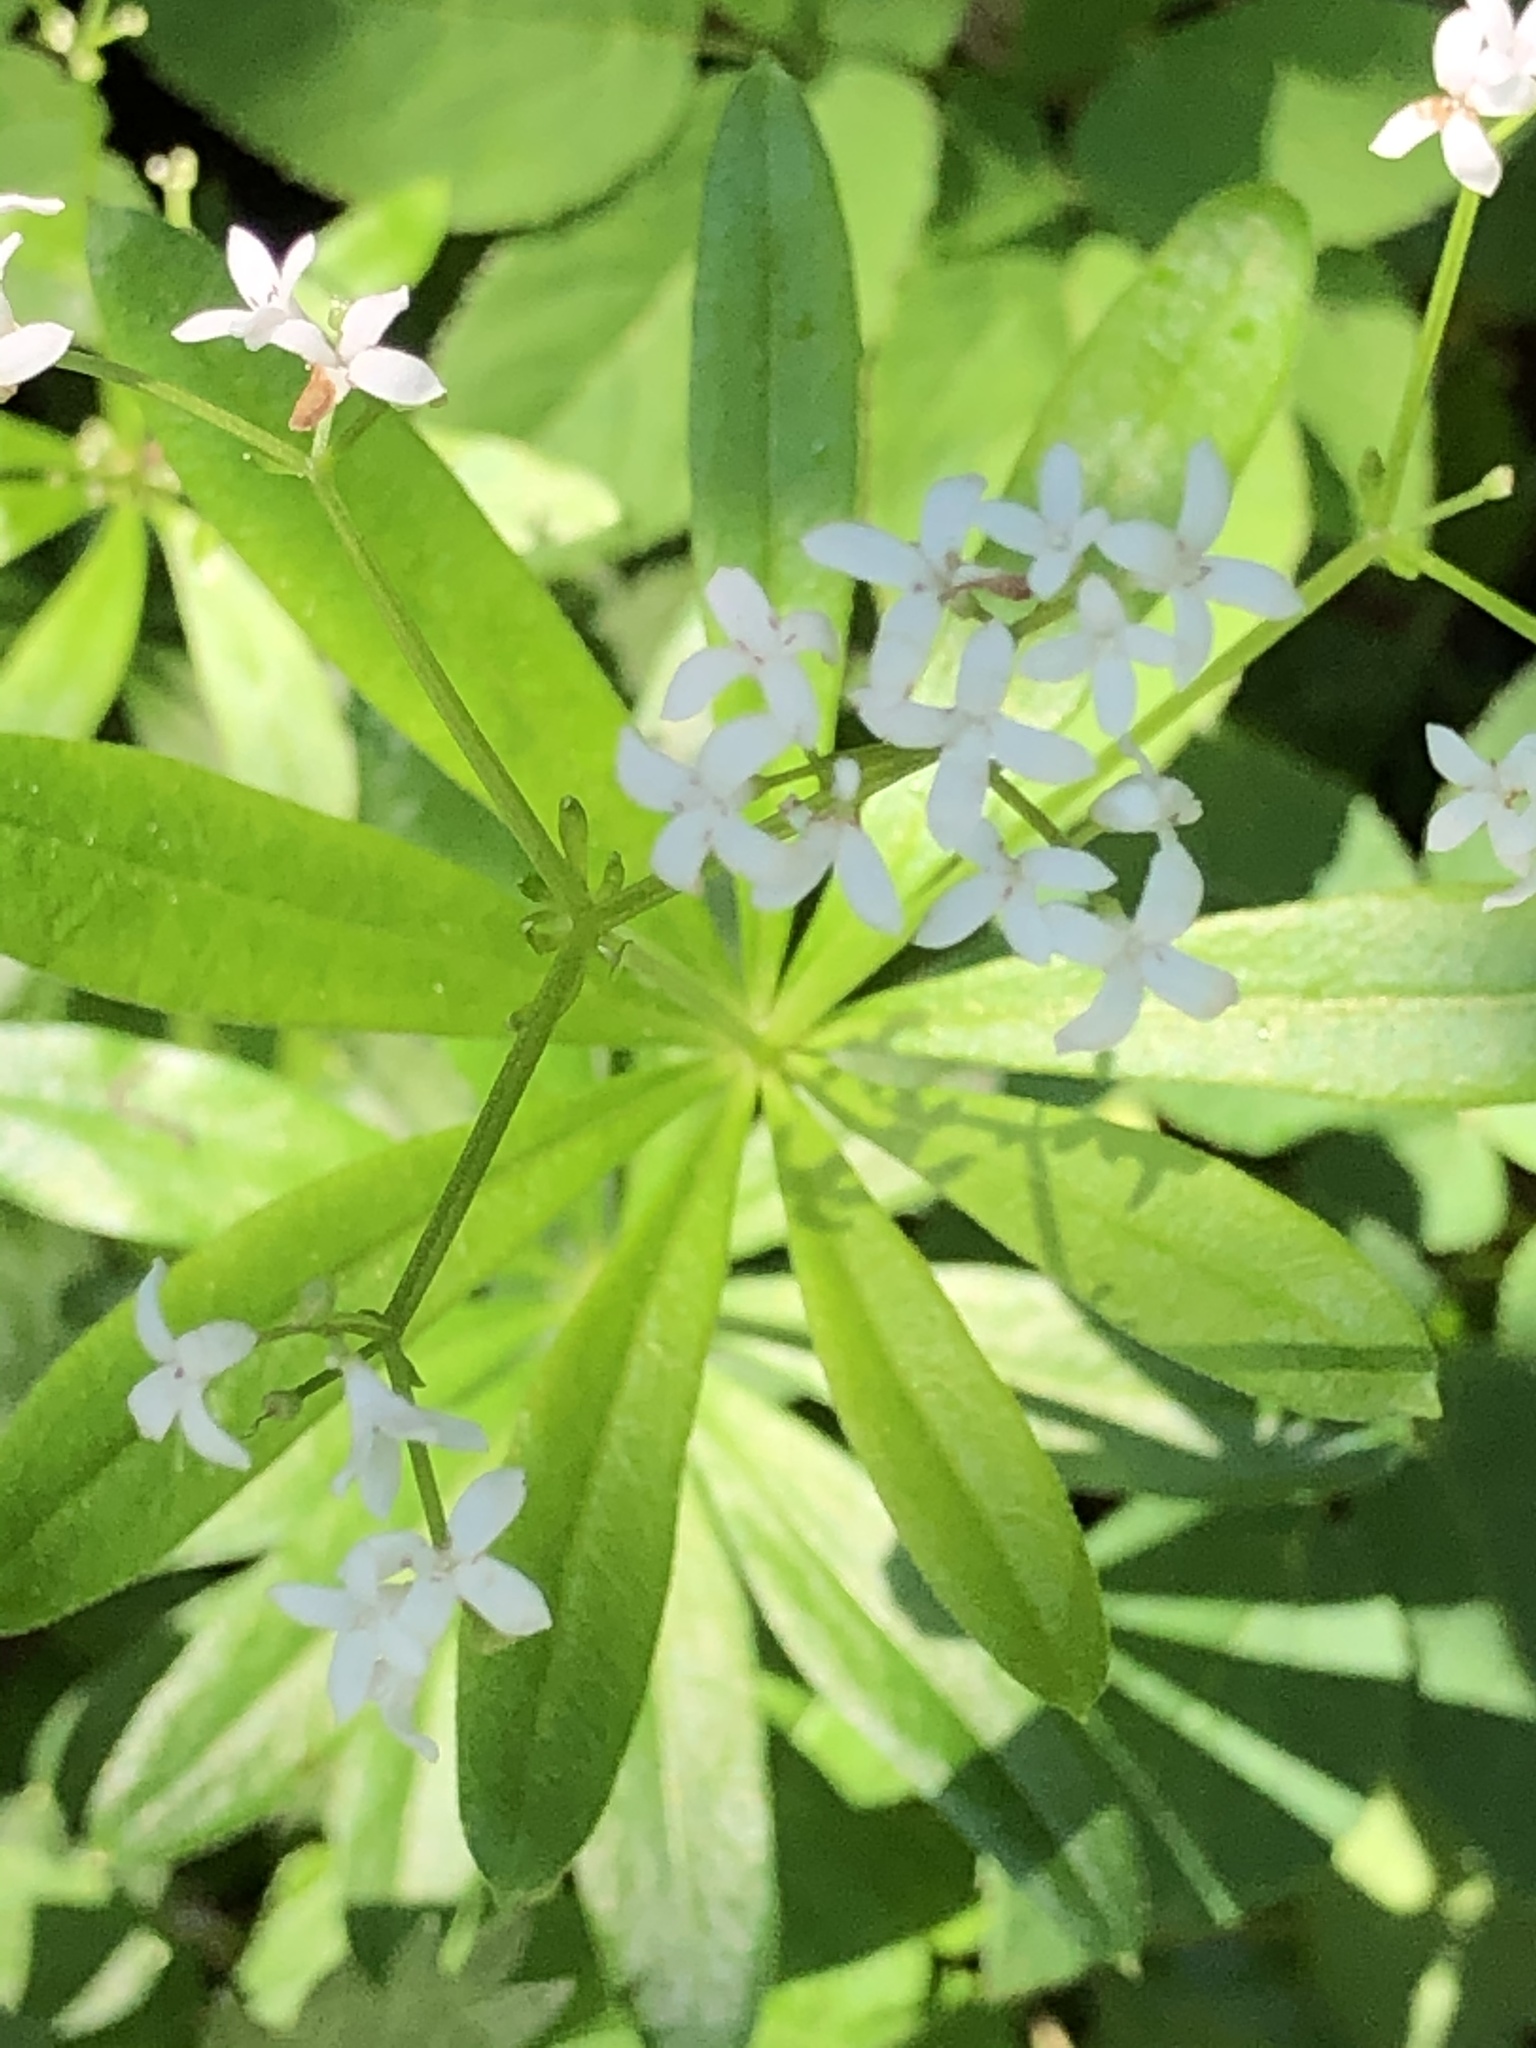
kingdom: Plantae
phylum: Tracheophyta
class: Magnoliopsida
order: Gentianales
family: Rubiaceae
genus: Galium
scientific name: Galium odoratum
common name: Sweet woodruff
